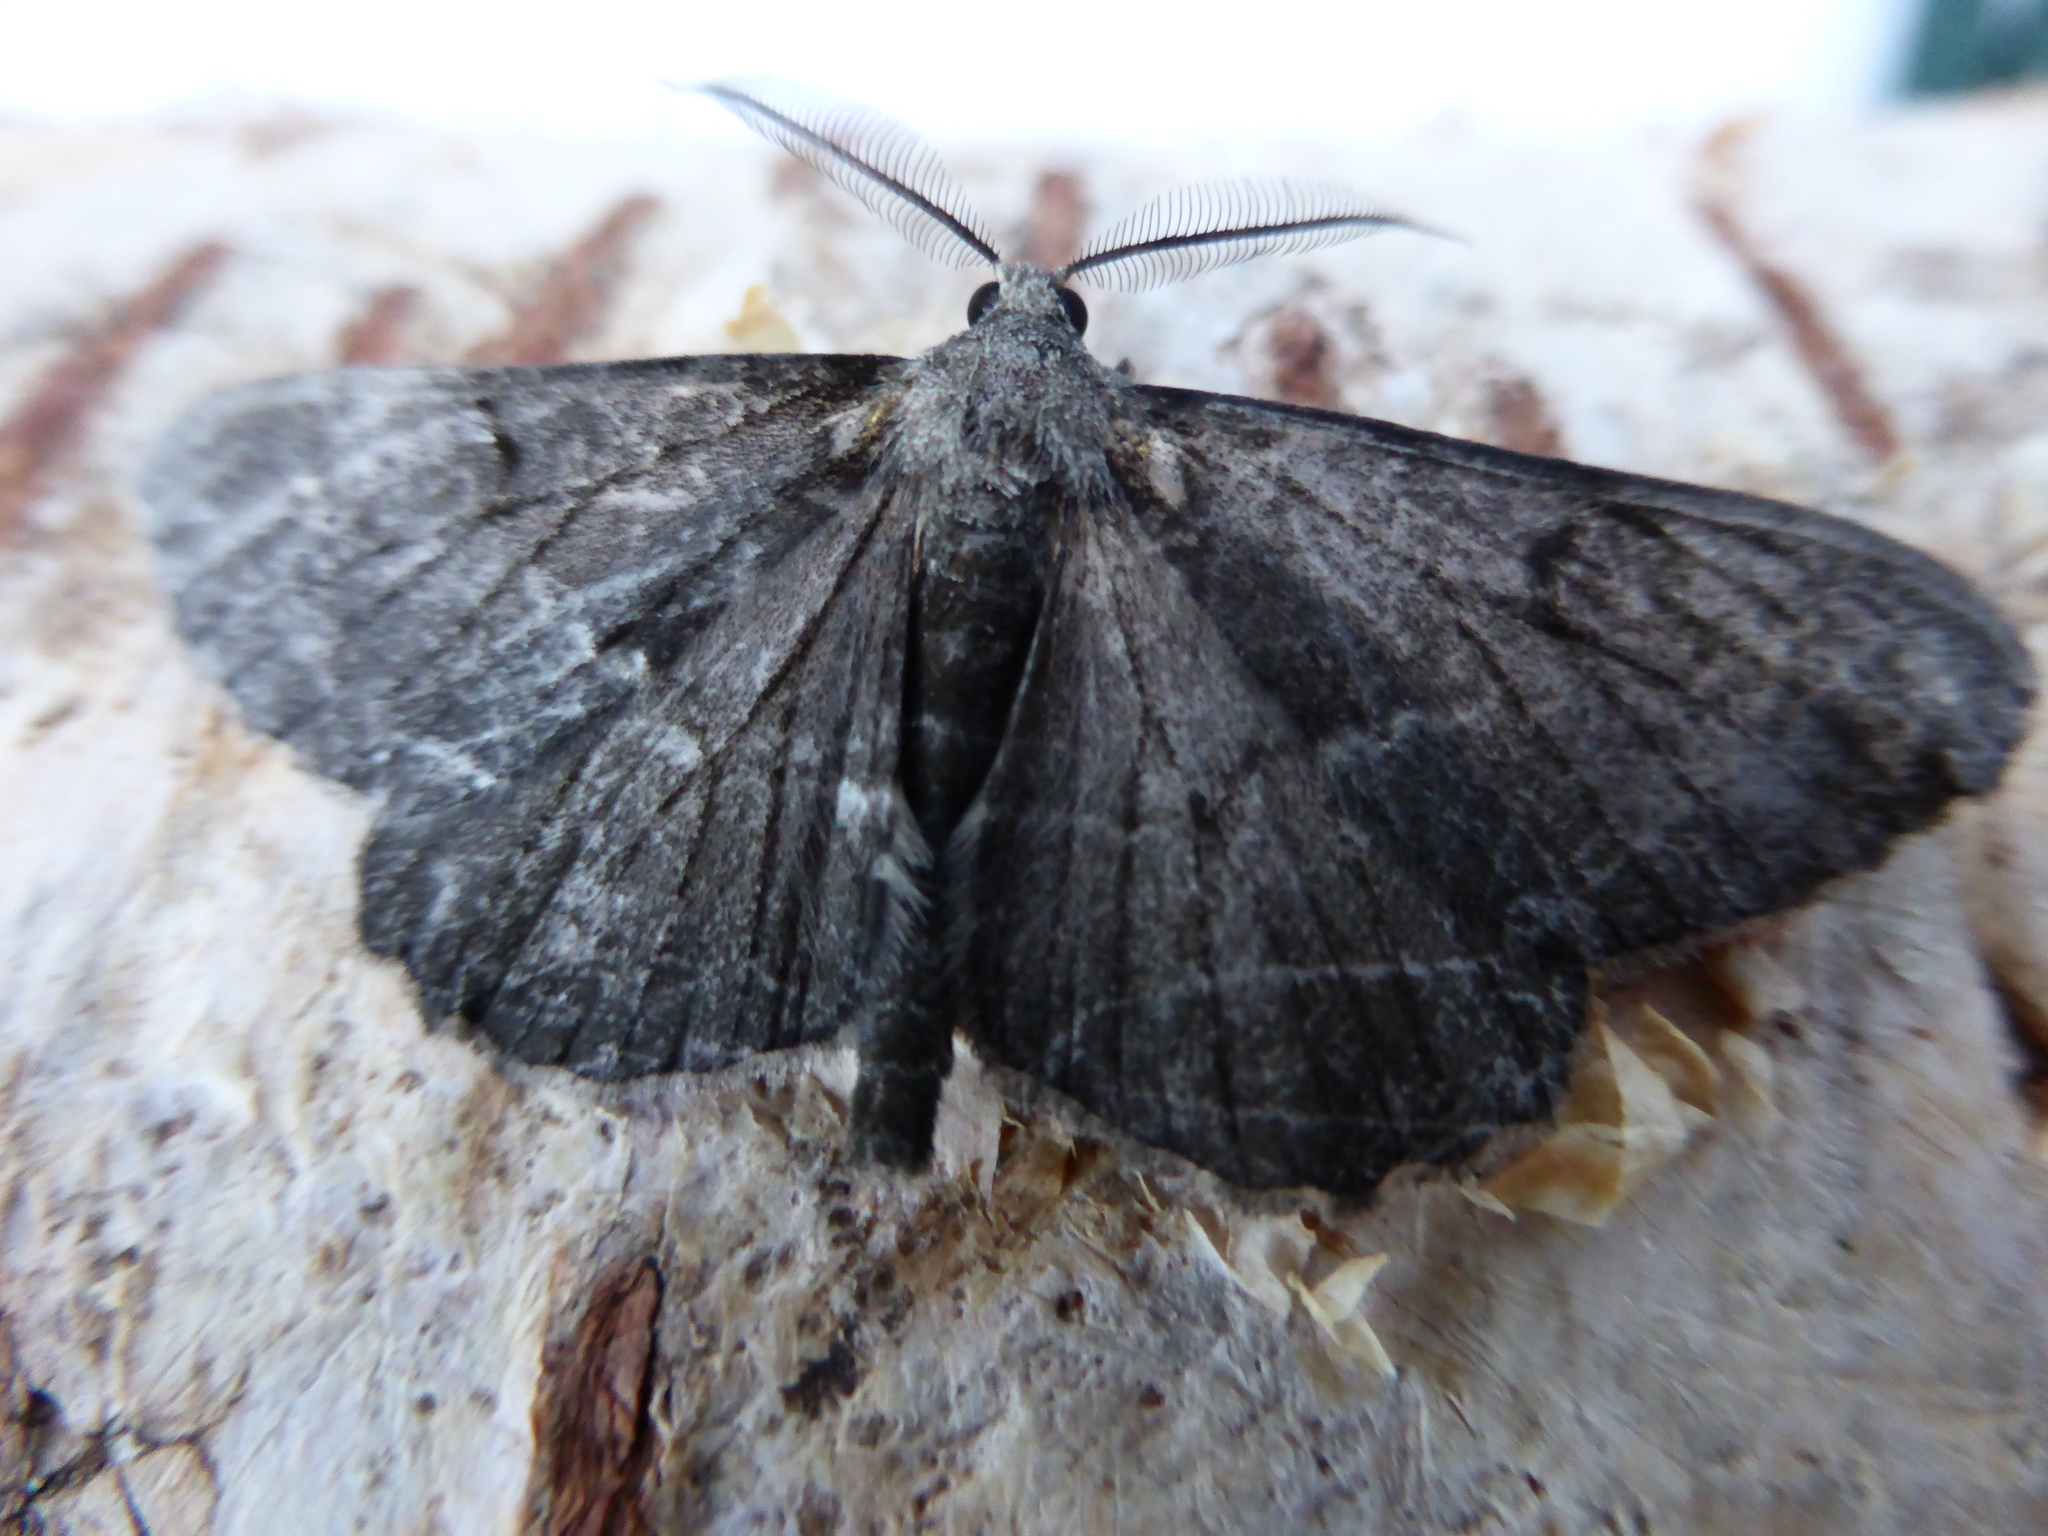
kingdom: Animalia
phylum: Arthropoda
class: Insecta
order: Lepidoptera
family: Geometridae
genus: Peribatodes
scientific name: Peribatodes rhomboidaria
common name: Willow beauty
